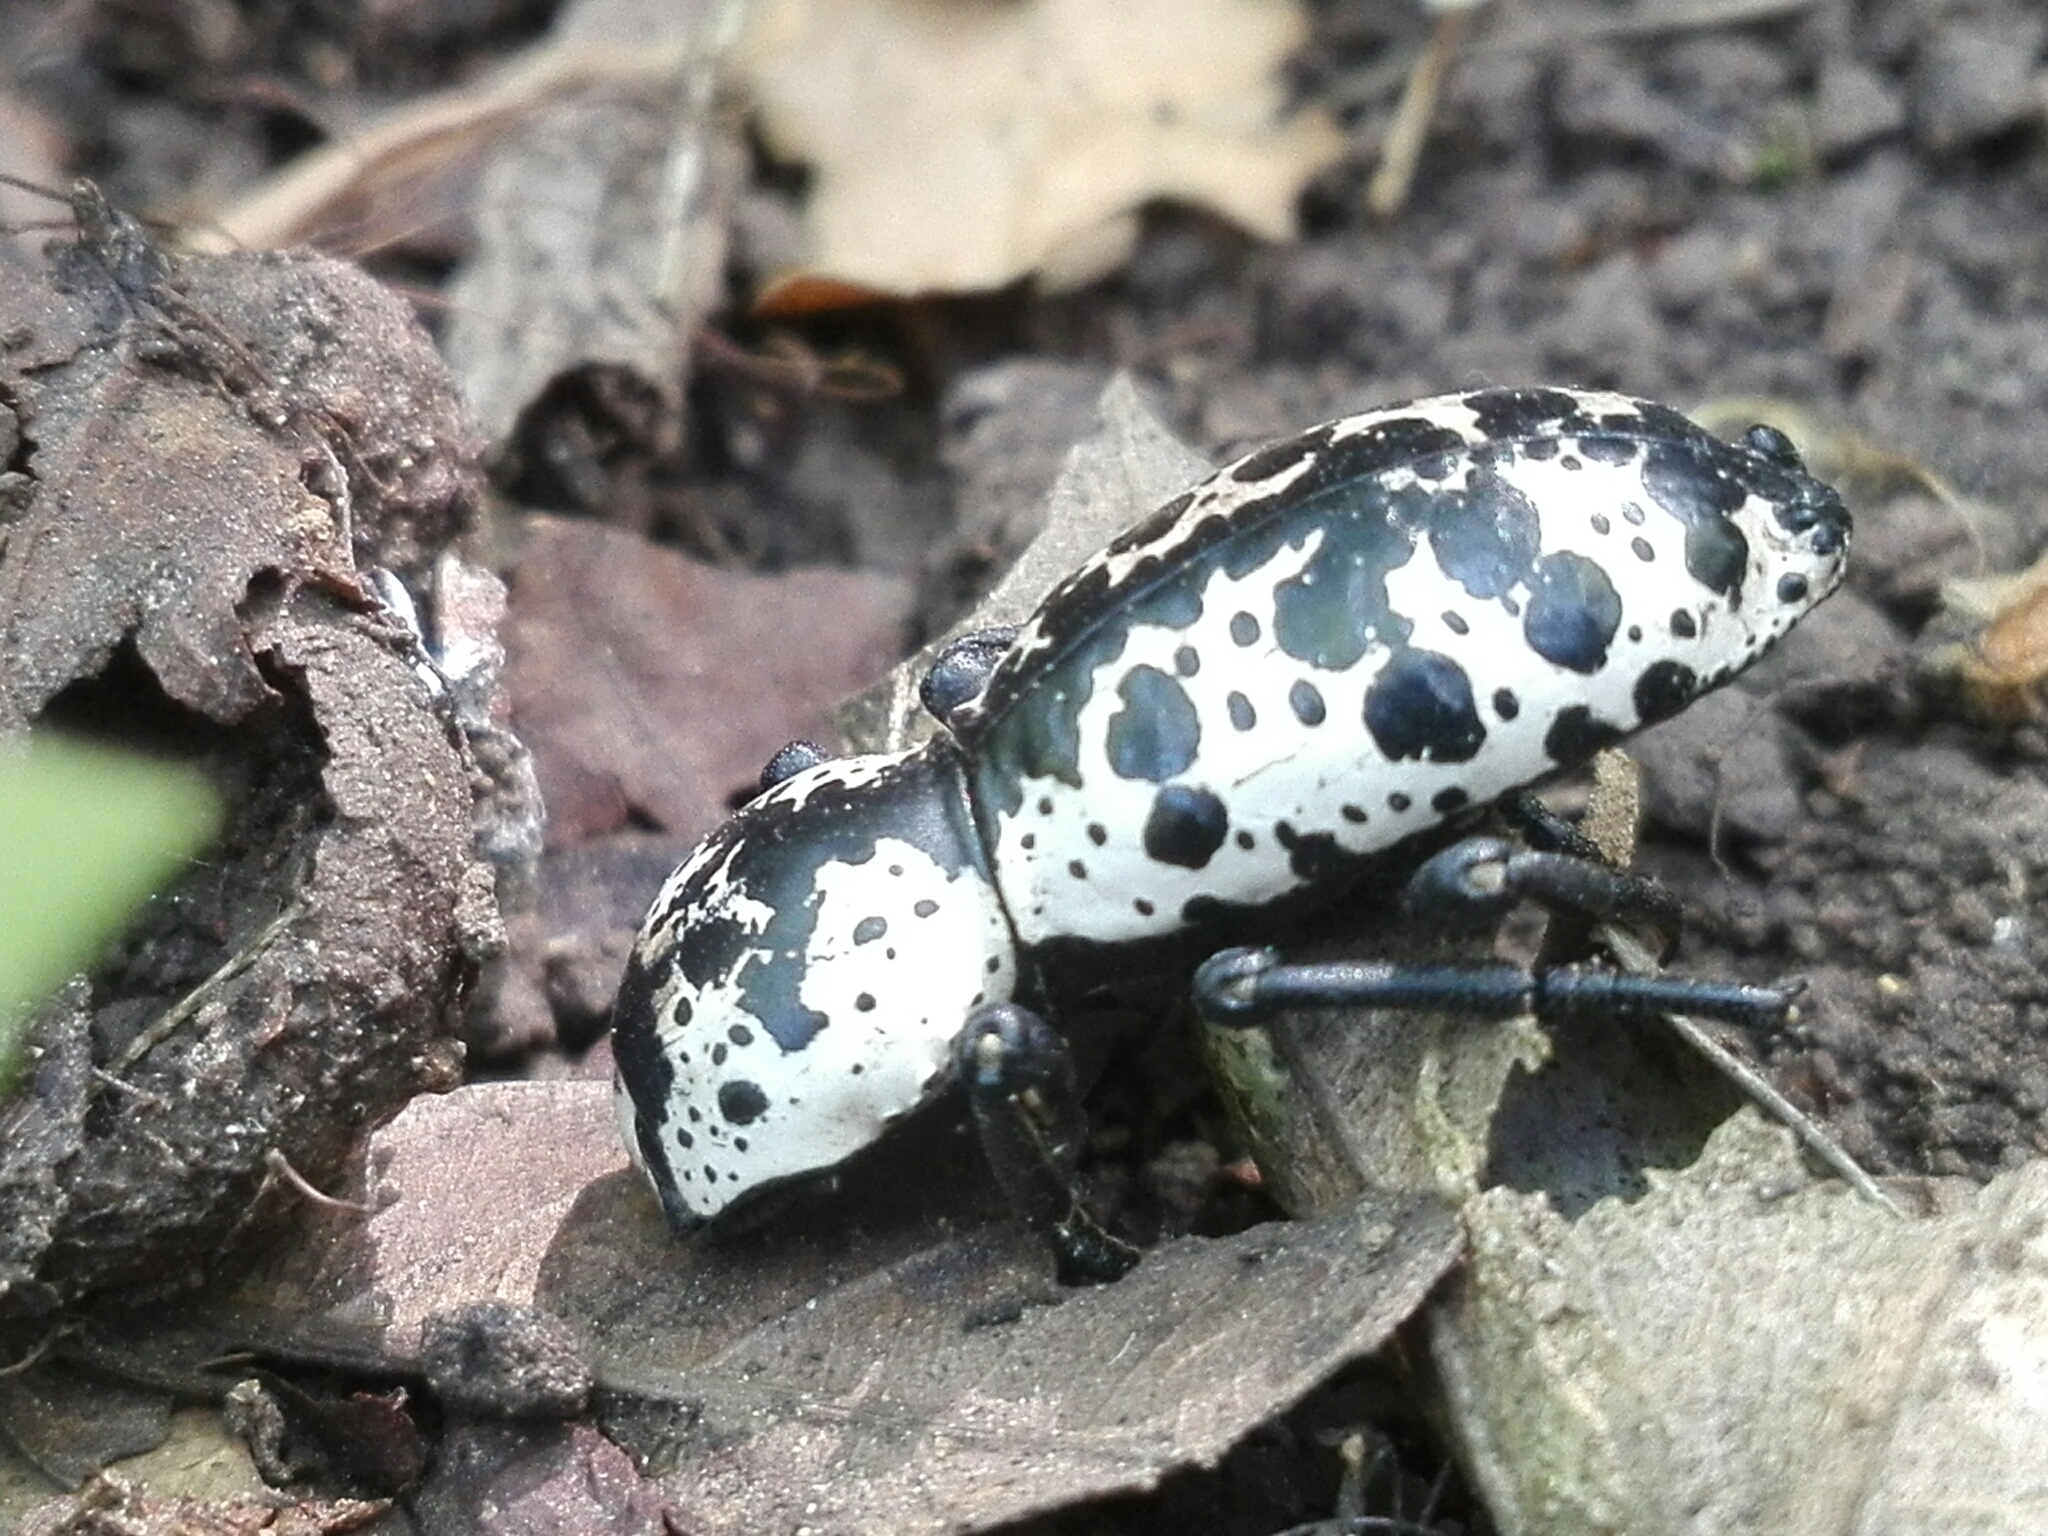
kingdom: Animalia
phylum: Arthropoda
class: Insecta
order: Coleoptera
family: Zopheridae
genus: Zopherus
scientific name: Zopherus nodulosus
